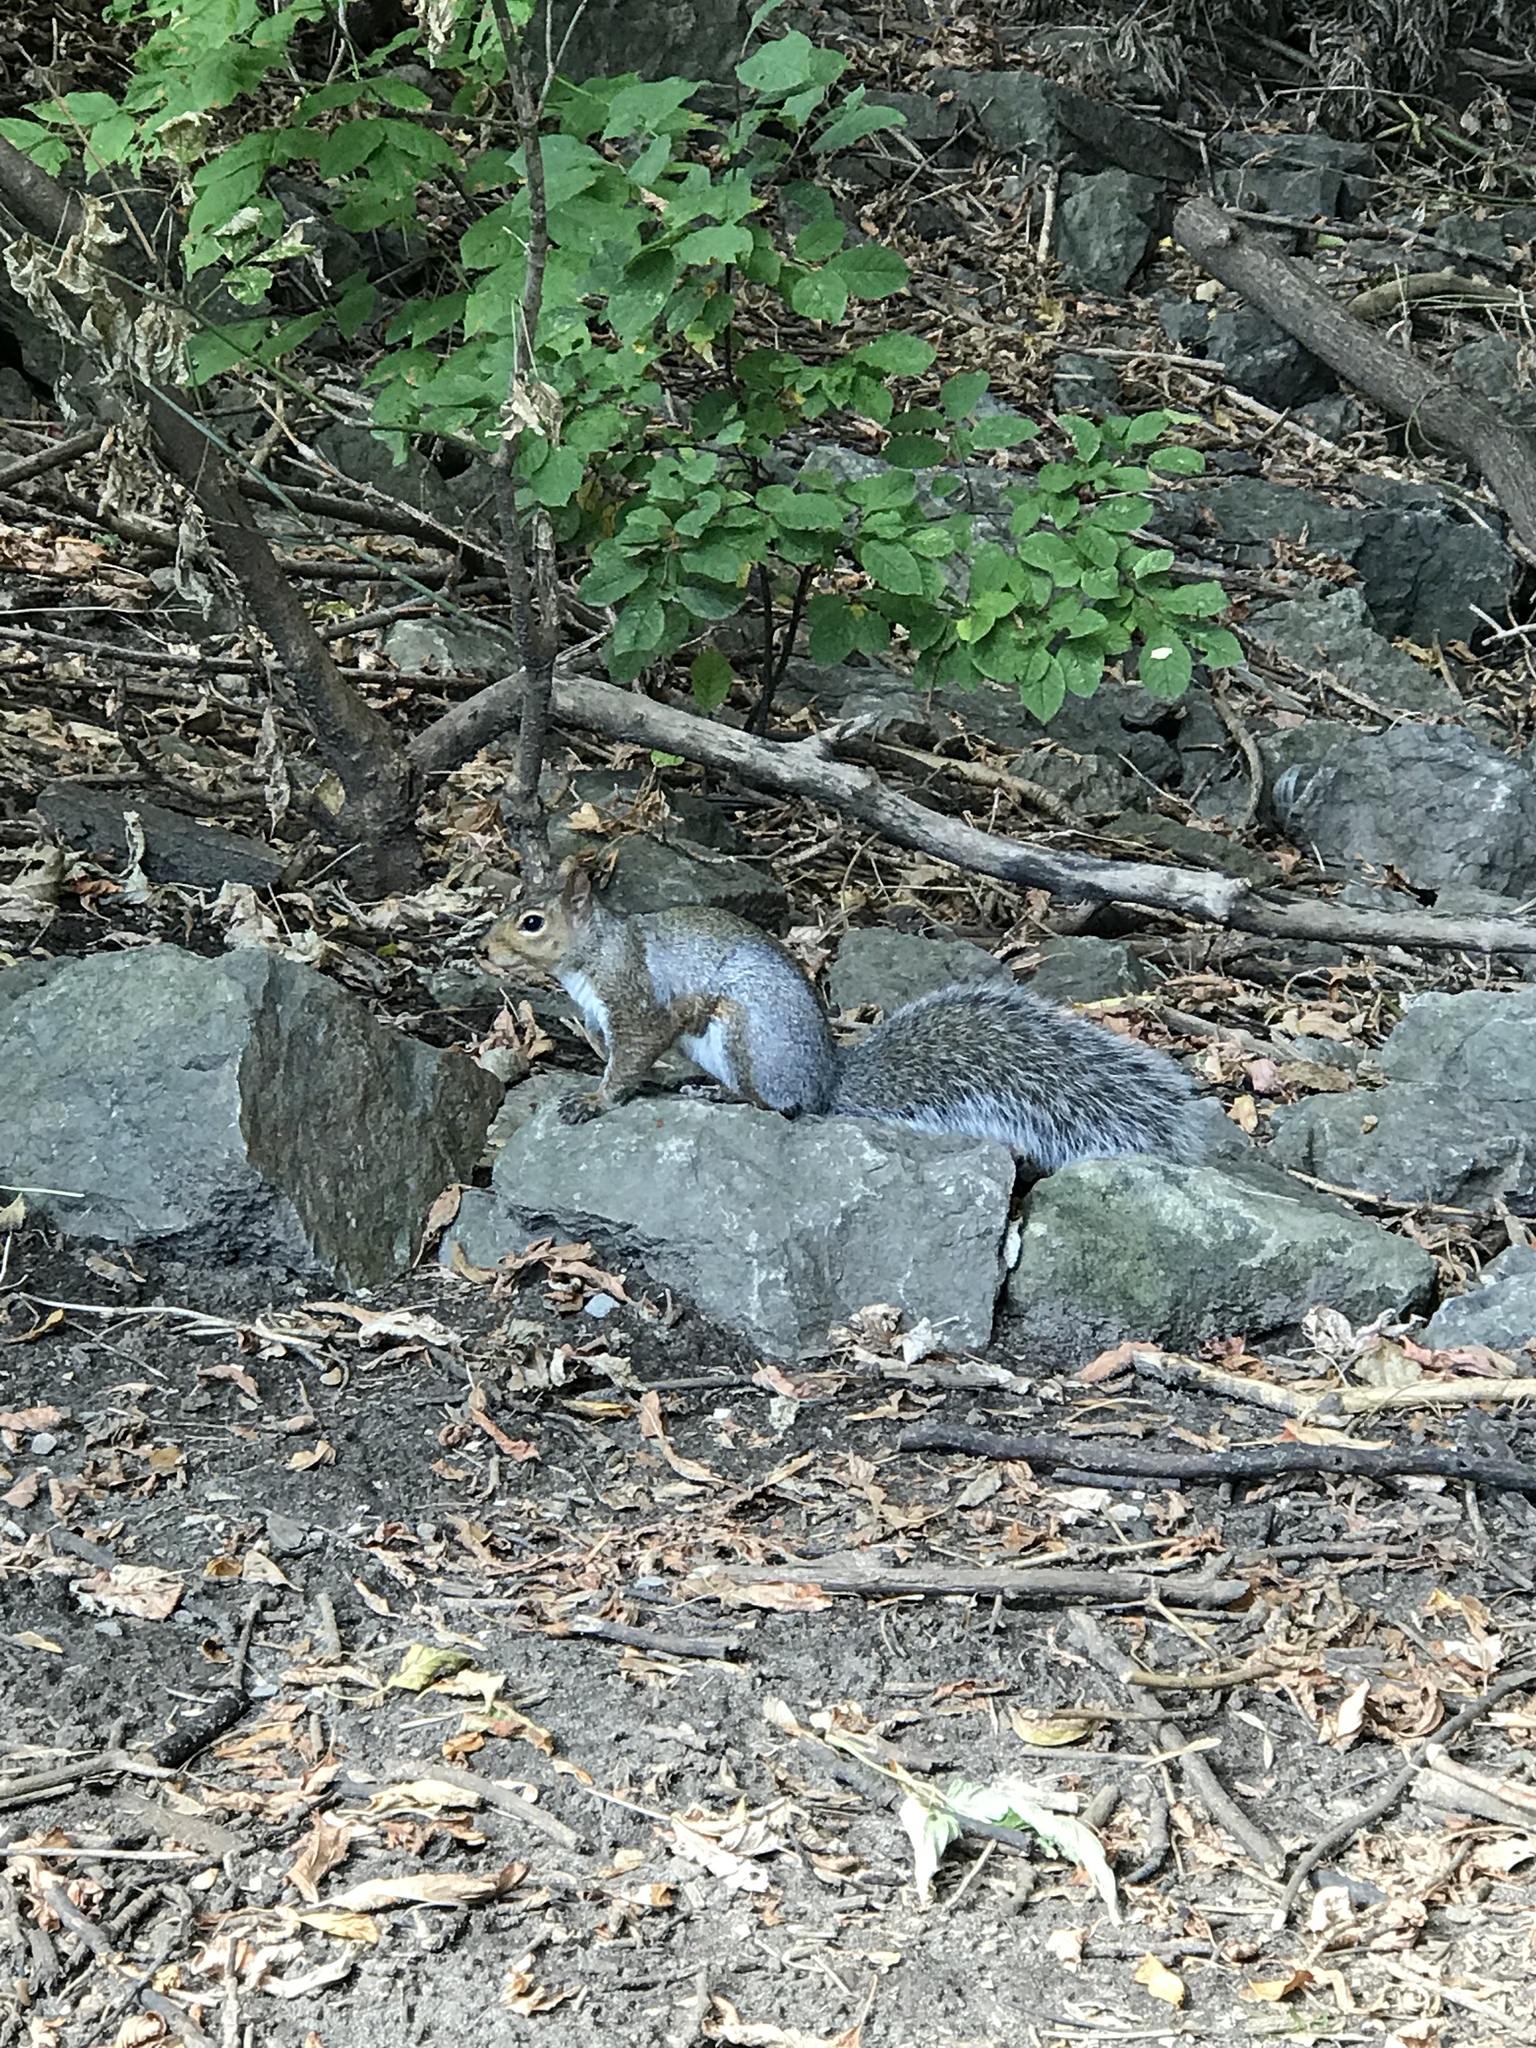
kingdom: Animalia
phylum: Chordata
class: Mammalia
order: Rodentia
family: Sciuridae
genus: Sciurus
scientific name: Sciurus carolinensis
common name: Eastern gray squirrel
